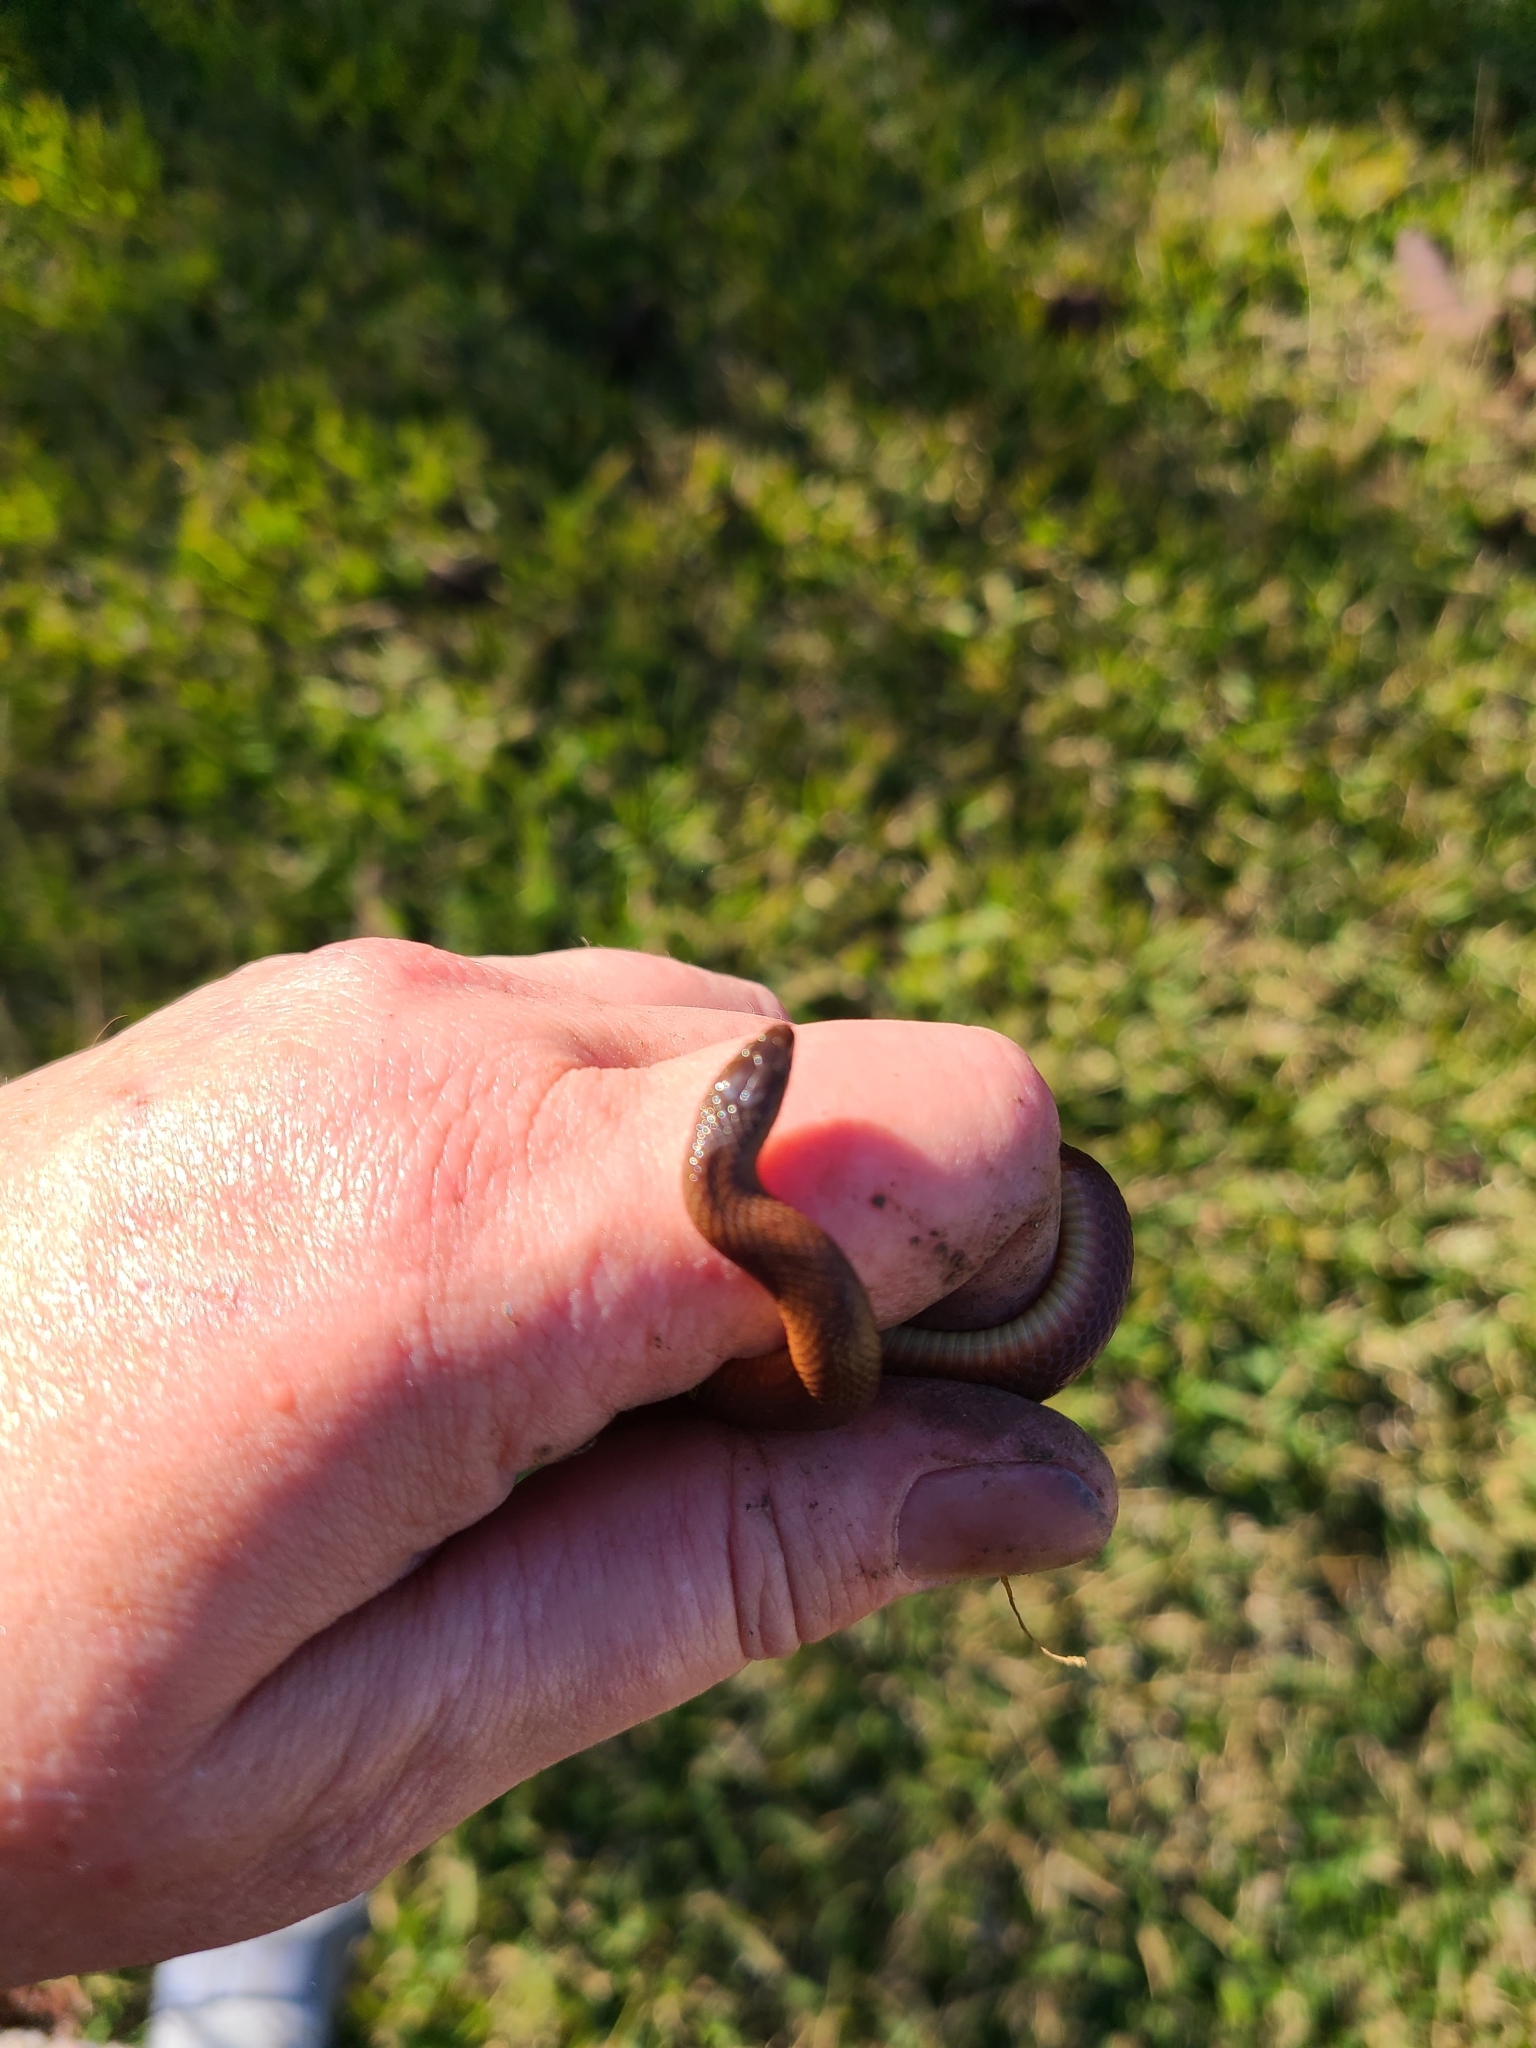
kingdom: Animalia
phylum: Chordata
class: Squamata
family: Colubridae
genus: Haldea
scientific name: Haldea striatula
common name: Rough earth snake
